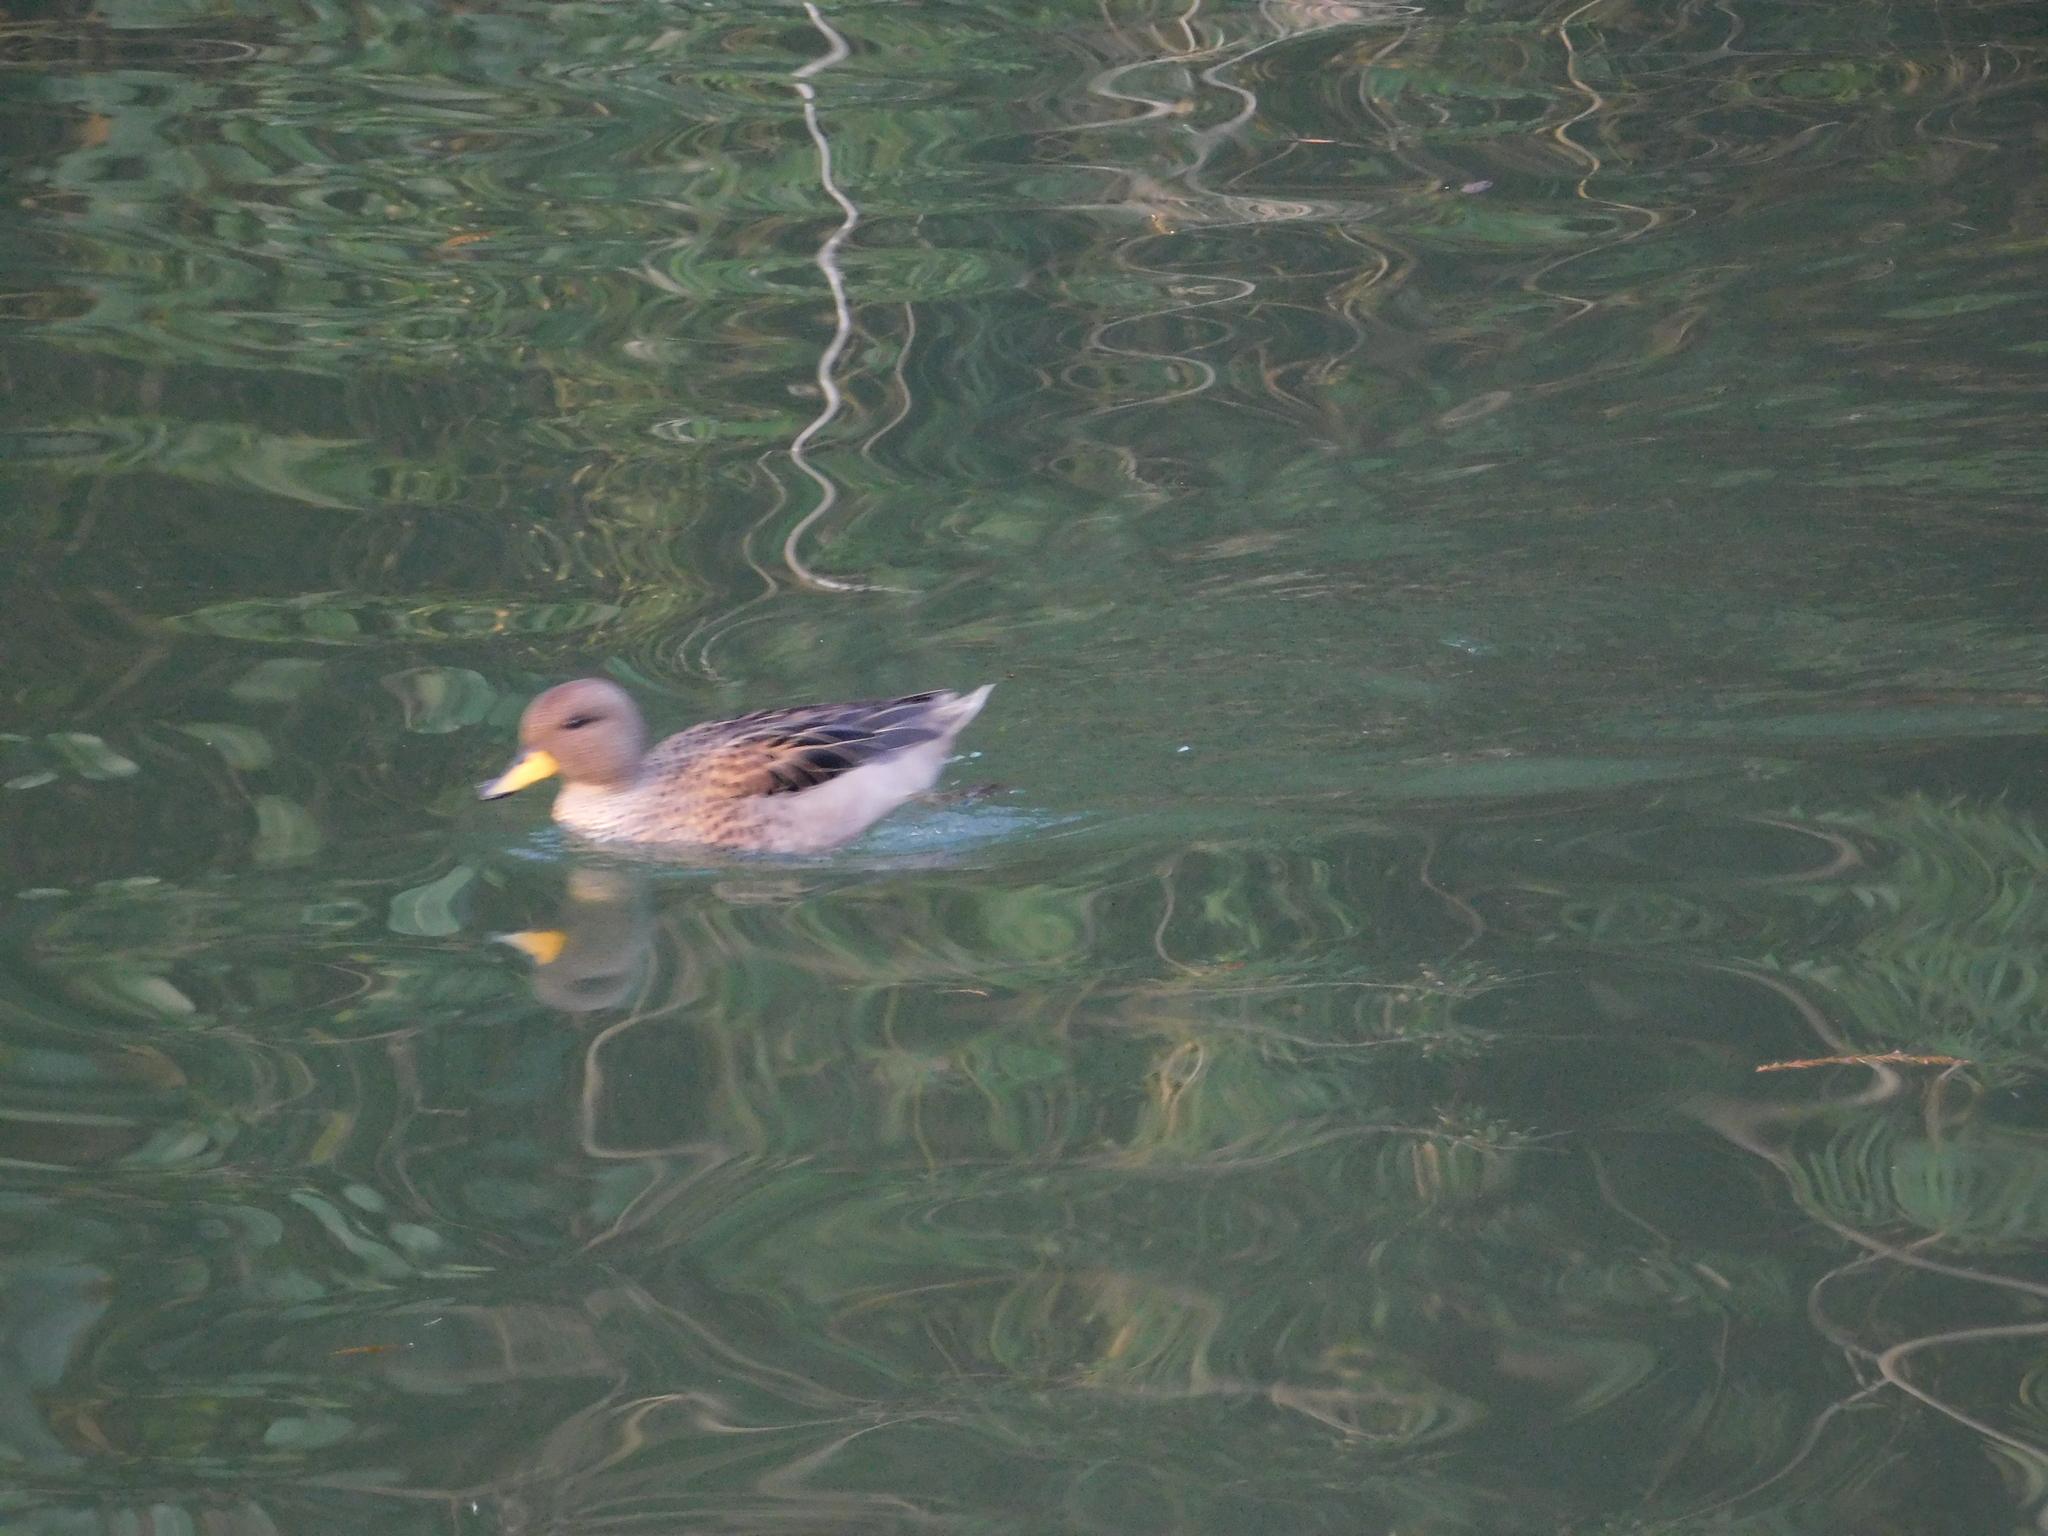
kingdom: Animalia
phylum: Chordata
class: Aves
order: Anseriformes
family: Anatidae
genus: Anas
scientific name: Anas flavirostris
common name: Yellow-billed teal
